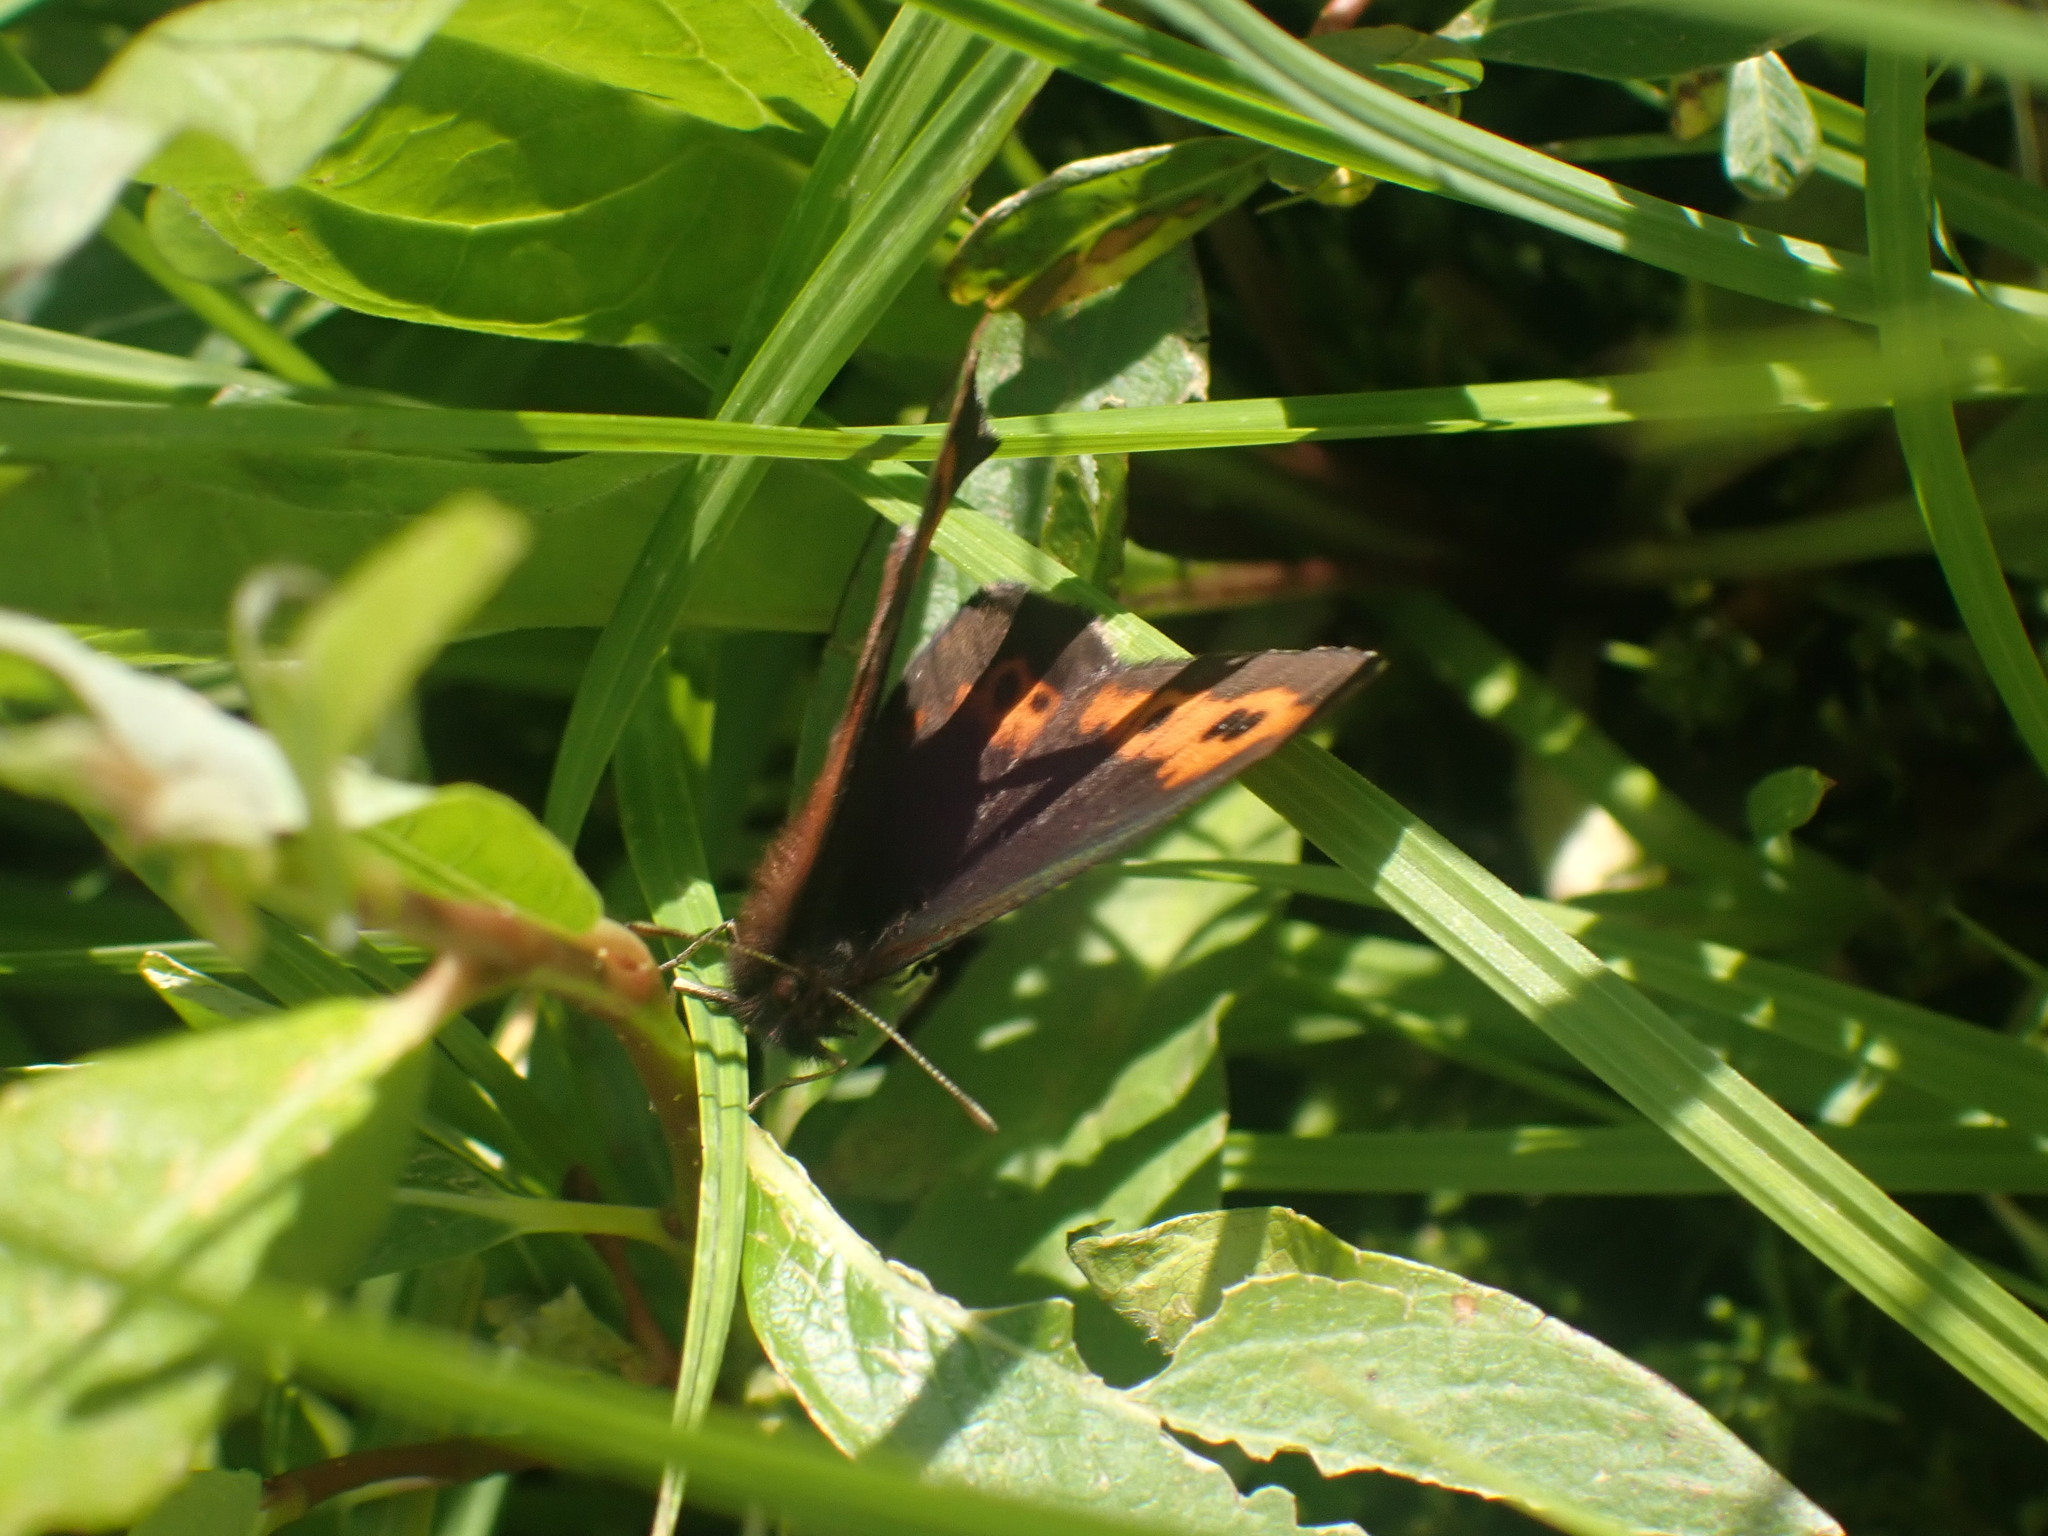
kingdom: Animalia
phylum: Arthropoda
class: Insecta
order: Lepidoptera
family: Nymphalidae
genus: Erebia
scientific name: Erebia vidleri
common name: Vidler's alpine
